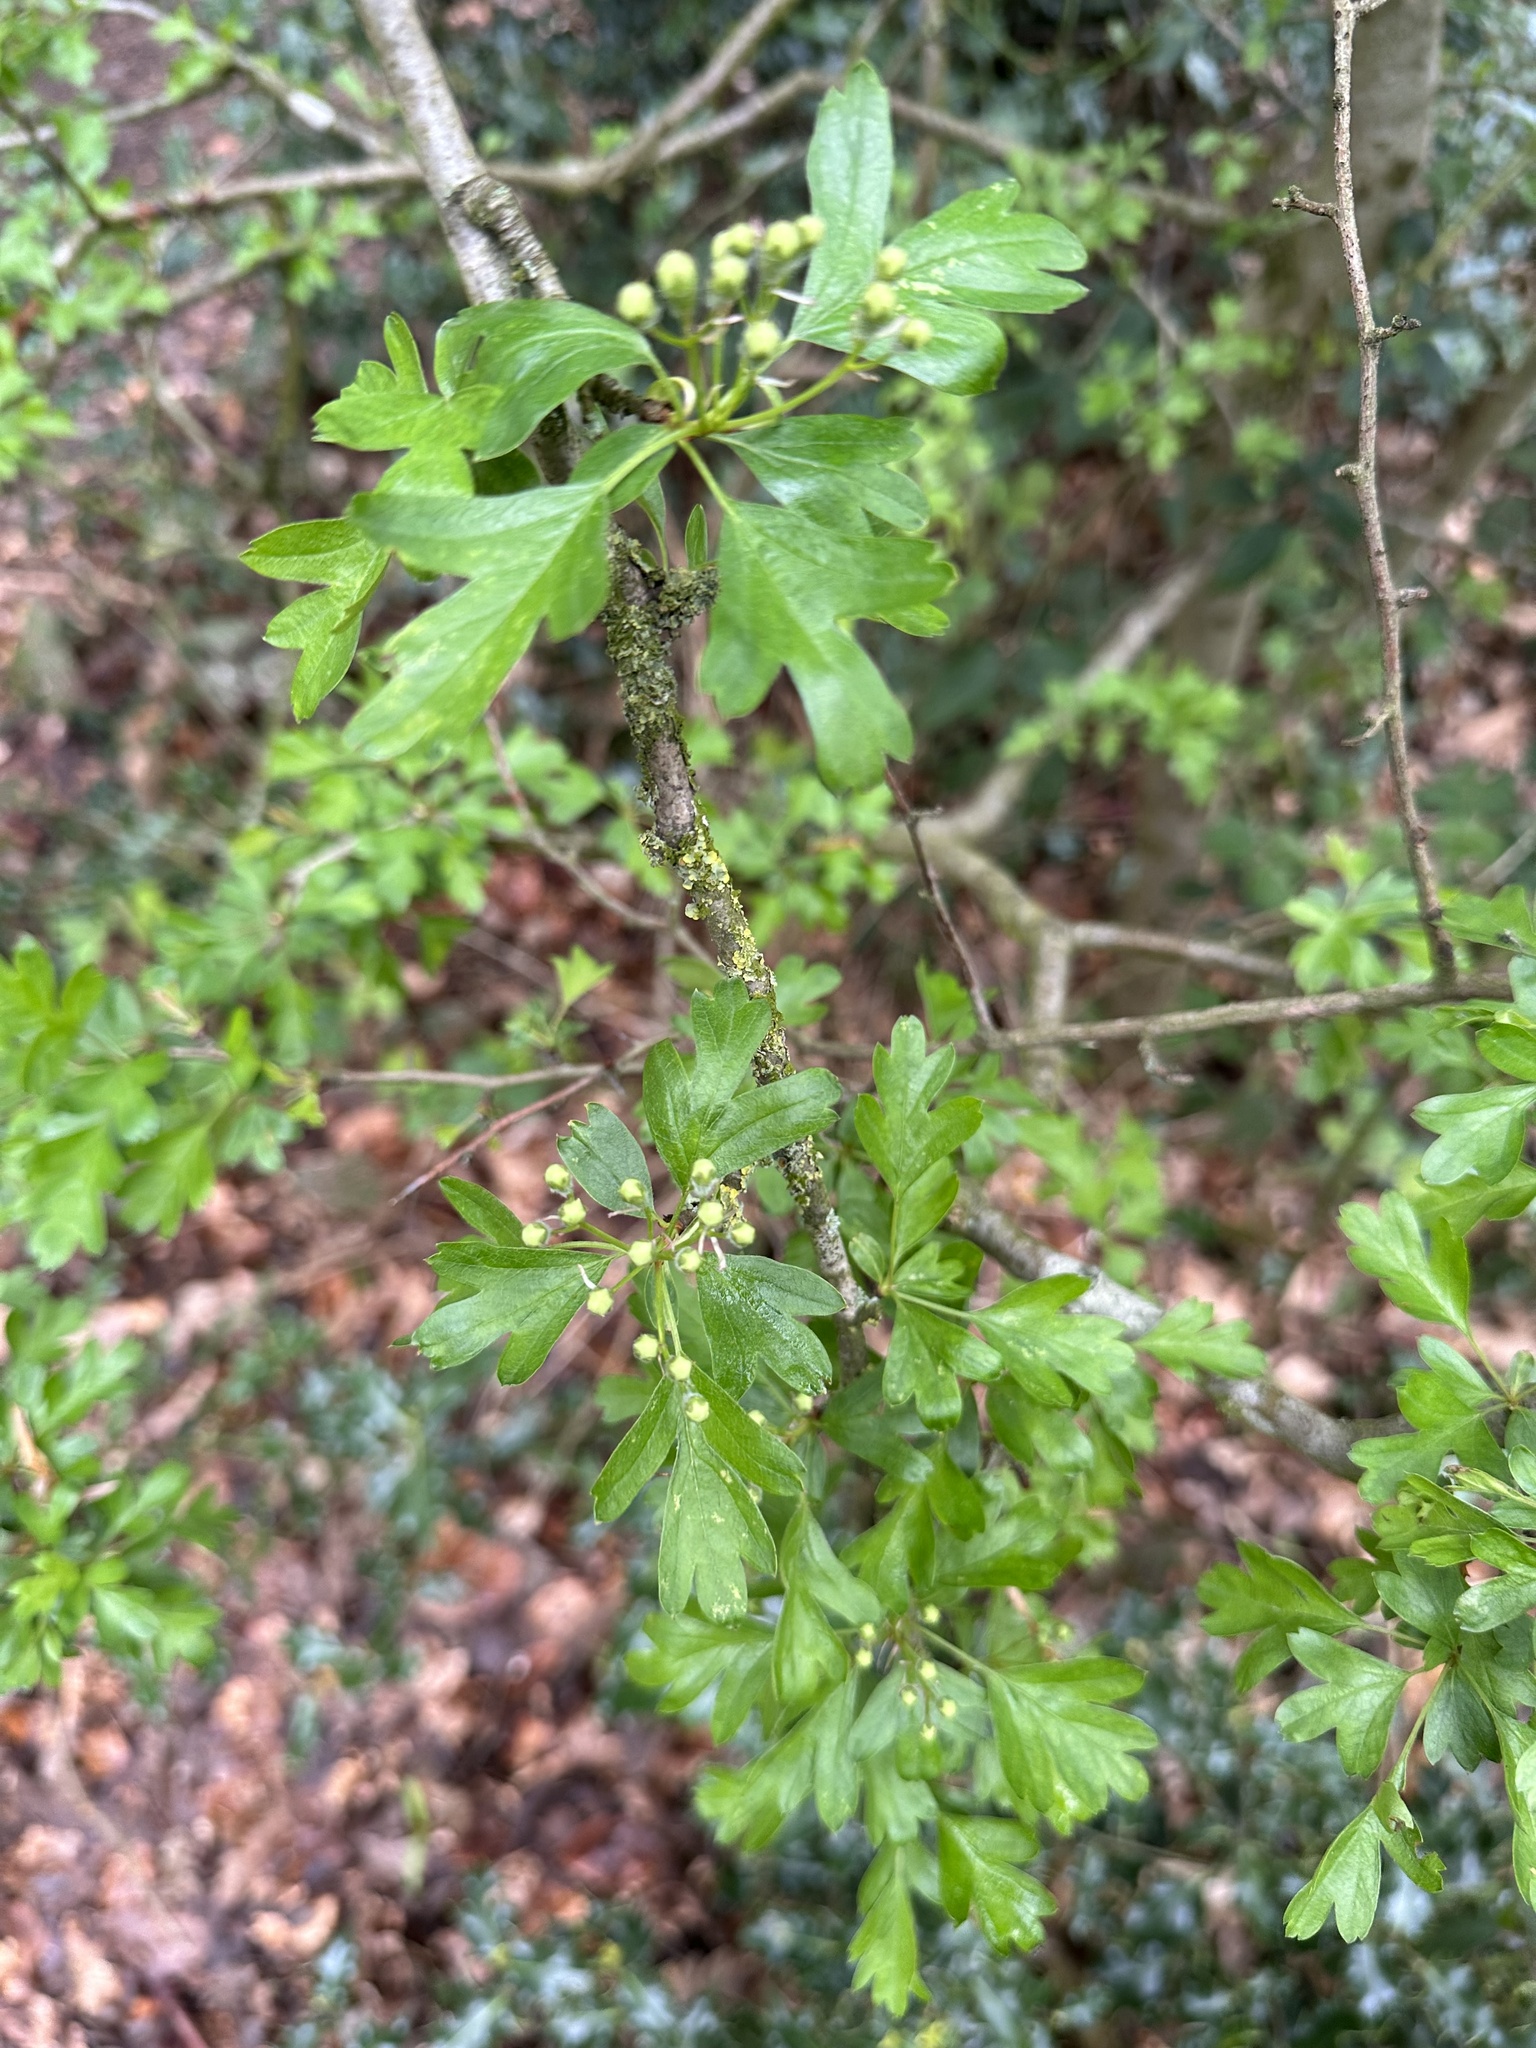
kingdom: Plantae
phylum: Tracheophyta
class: Magnoliopsida
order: Rosales
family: Rosaceae
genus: Crataegus
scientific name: Crataegus monogyna
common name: Hawthorn
